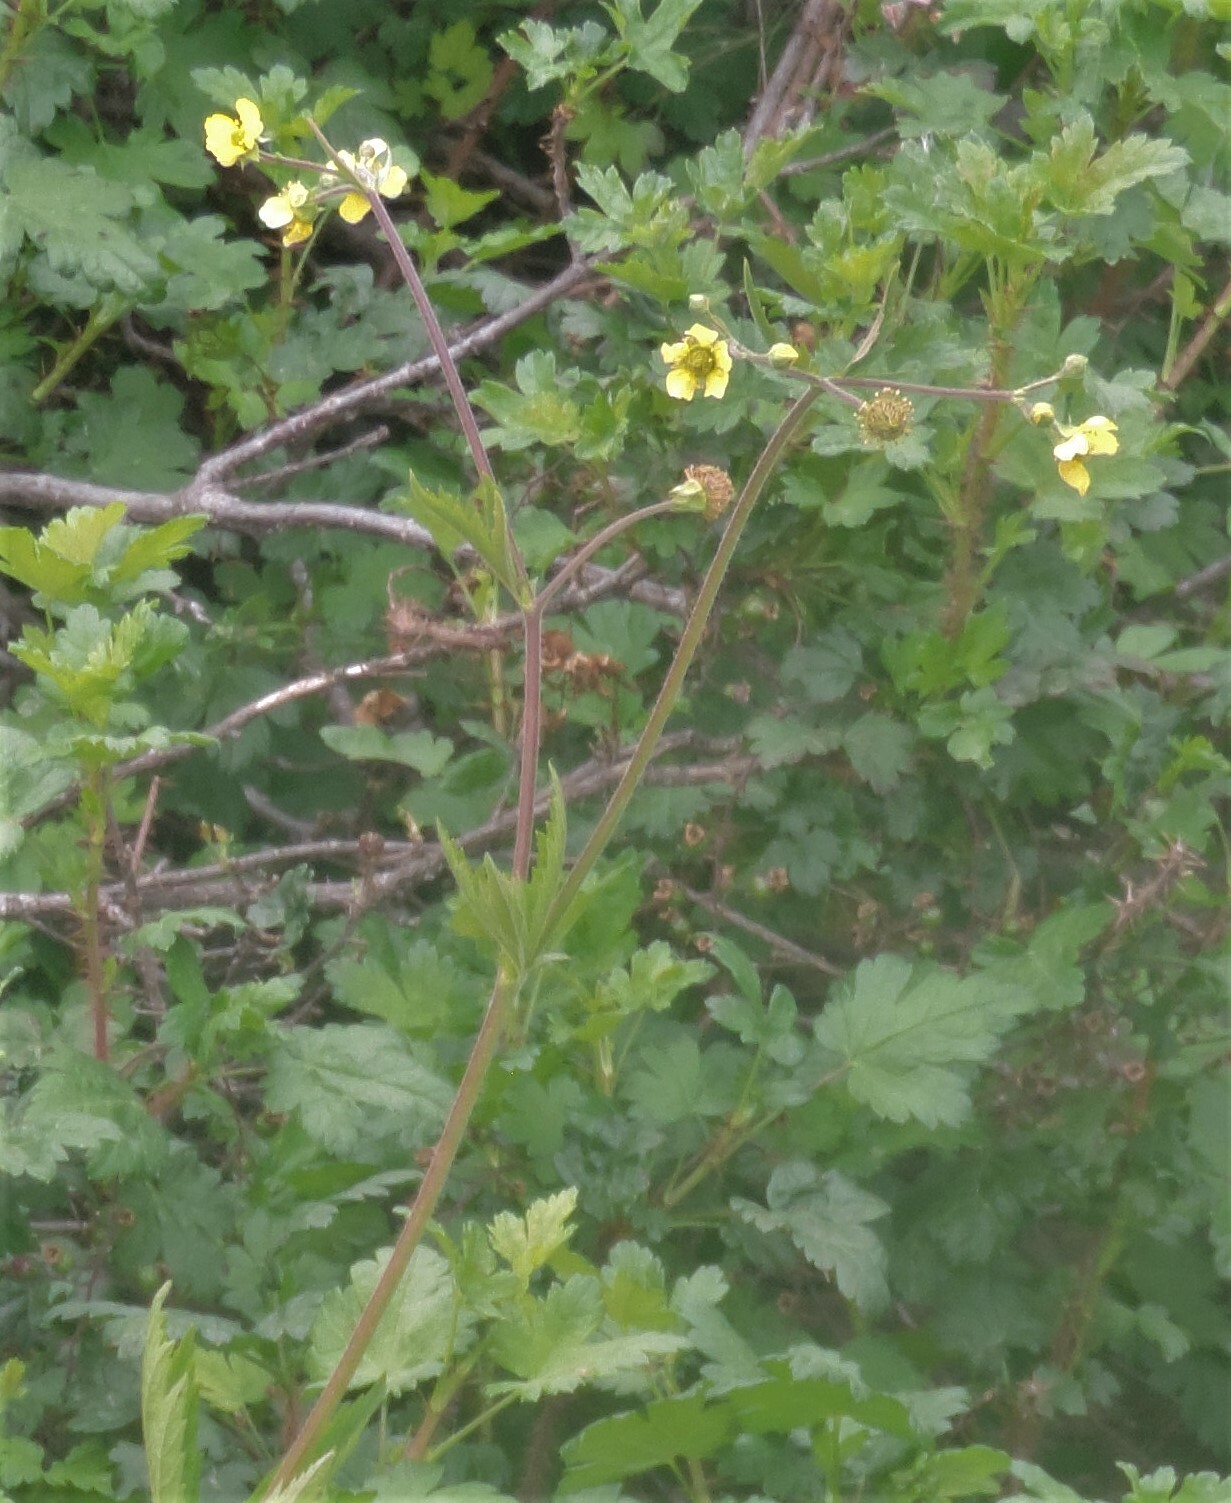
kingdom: Plantae
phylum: Tracheophyta
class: Magnoliopsida
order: Rosales
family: Rosaceae
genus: Geum
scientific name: Geum aleppicum
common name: Yellow avens
